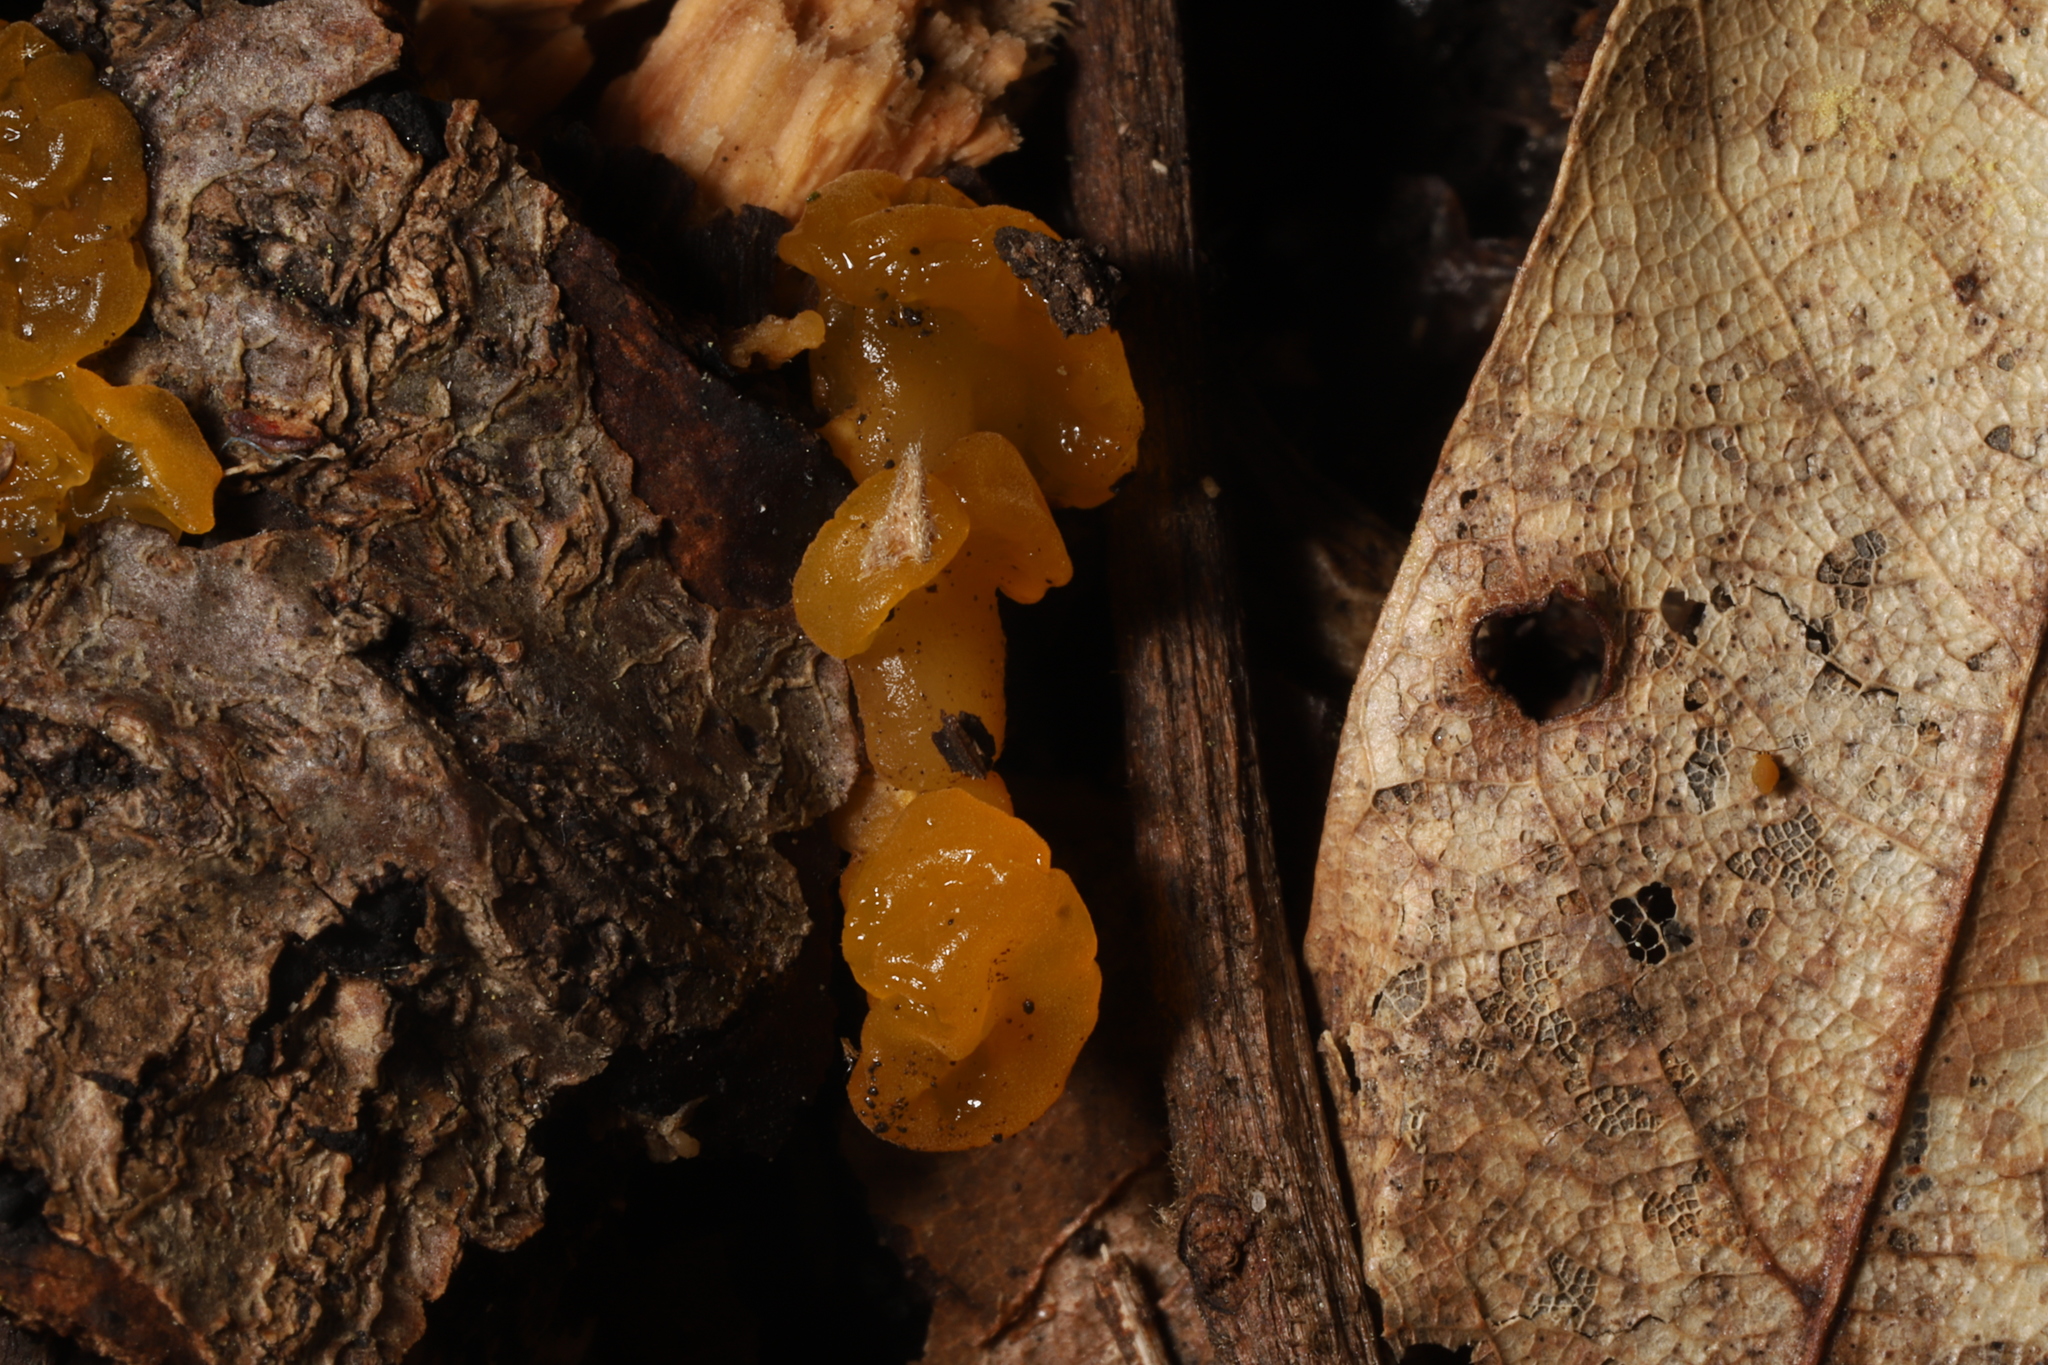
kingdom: Fungi
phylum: Basidiomycota
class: Tremellomycetes
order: Tremellales
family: Tremellaceae
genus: Tremella
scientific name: Tremella mesenterica
